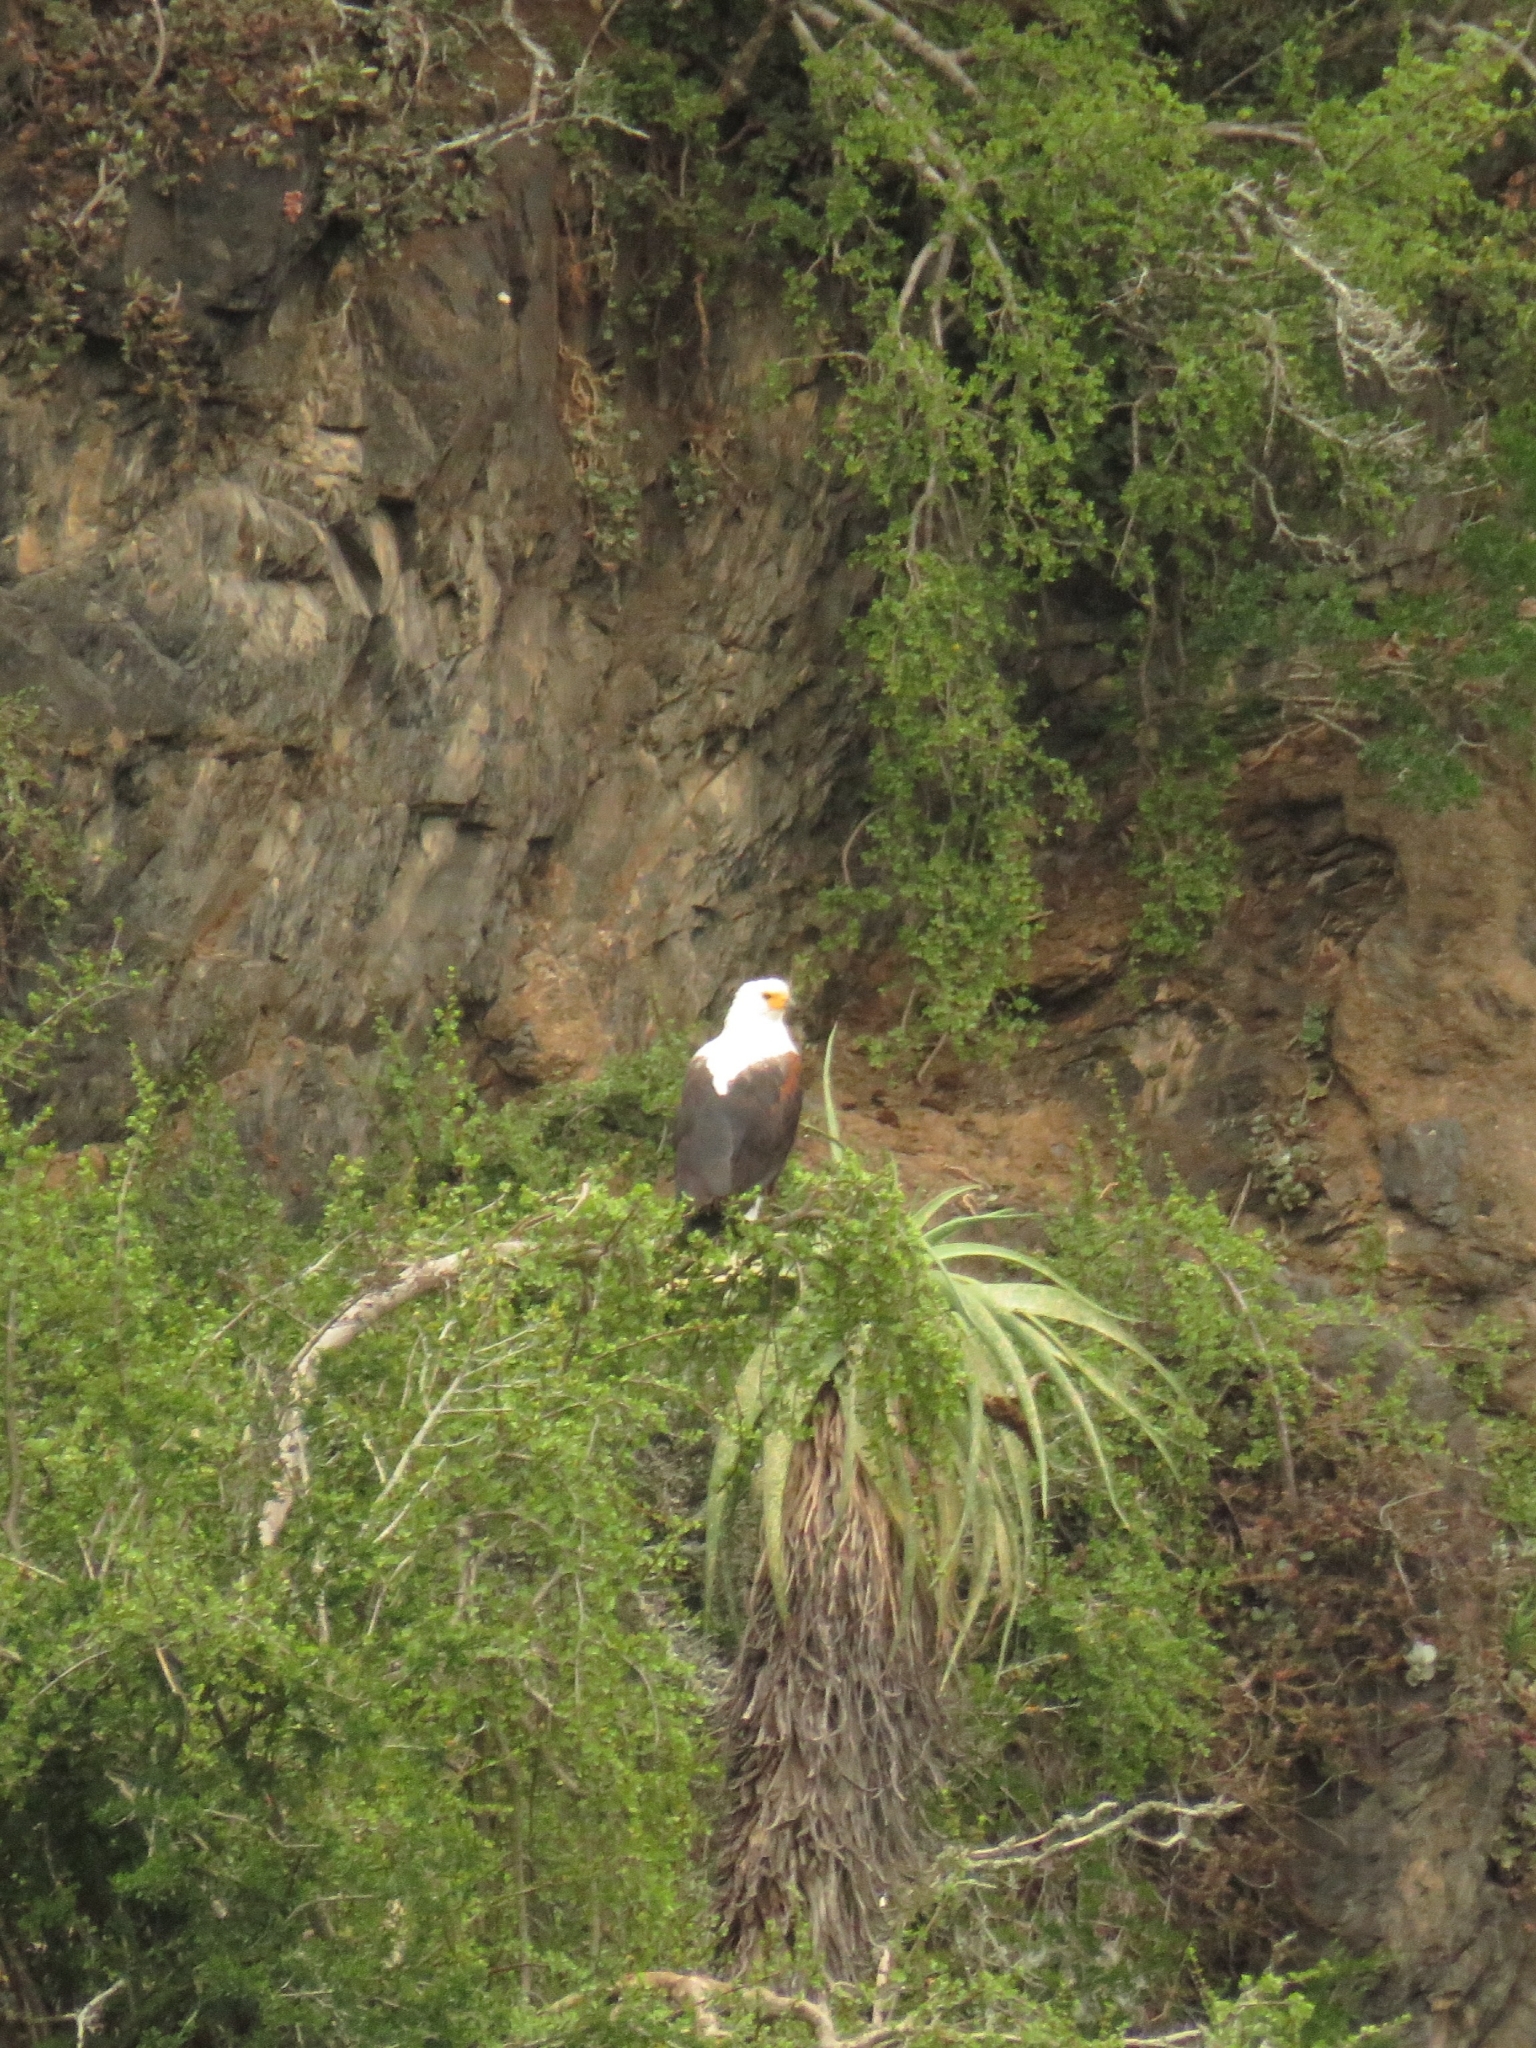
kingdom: Animalia
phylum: Chordata
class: Aves
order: Accipitriformes
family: Accipitridae
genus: Haliaeetus
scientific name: Haliaeetus vocifer
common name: African fish eagle
